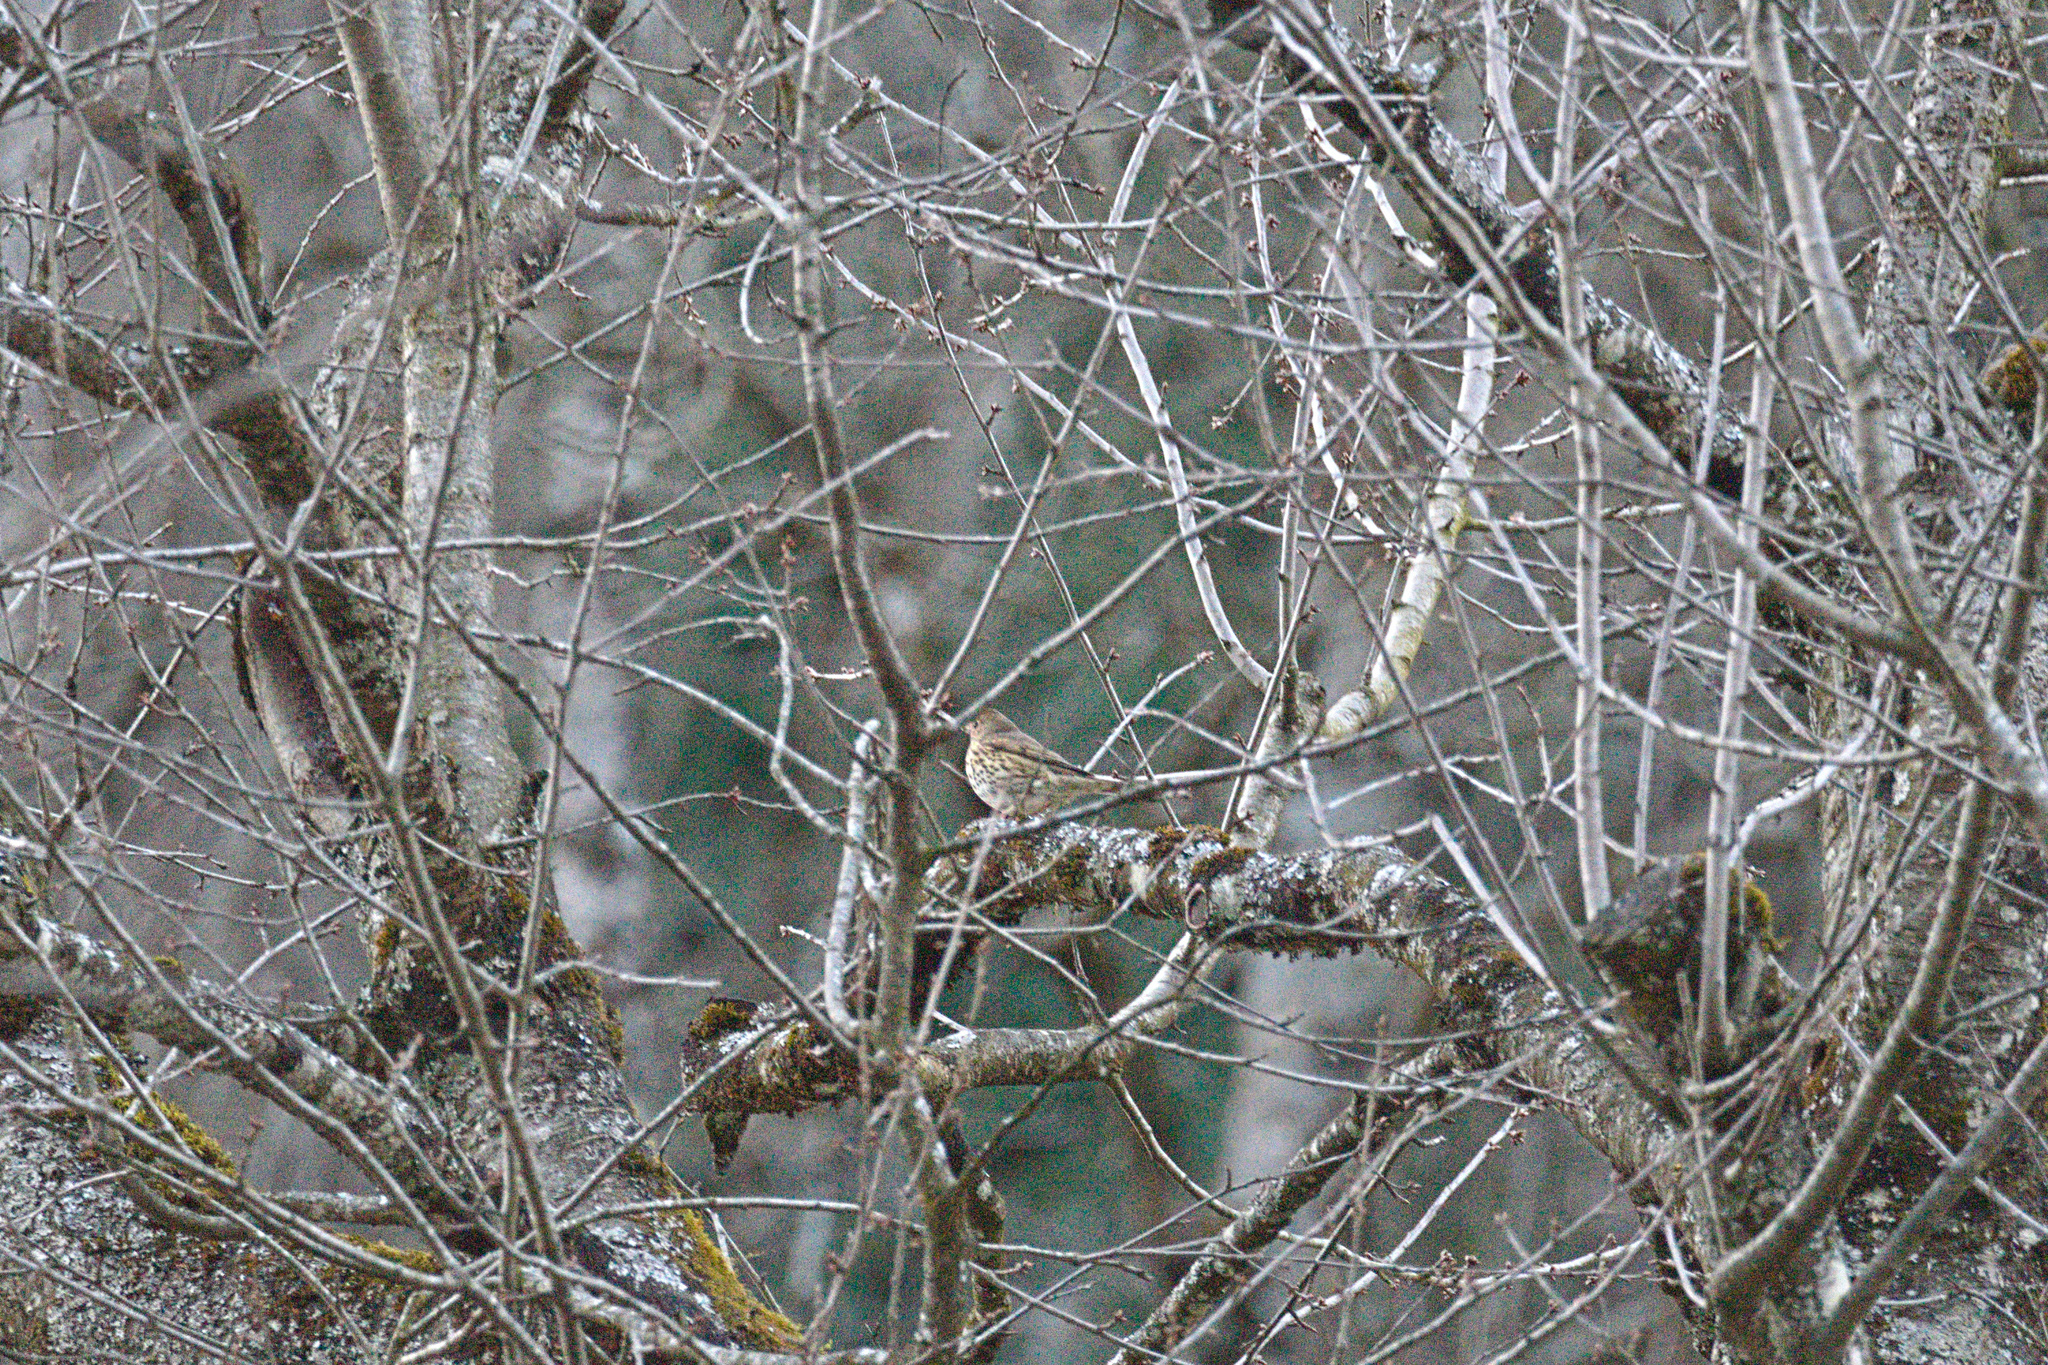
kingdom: Animalia
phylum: Chordata
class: Aves
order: Passeriformes
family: Turdidae
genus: Turdus
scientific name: Turdus philomelos
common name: Song thrush
